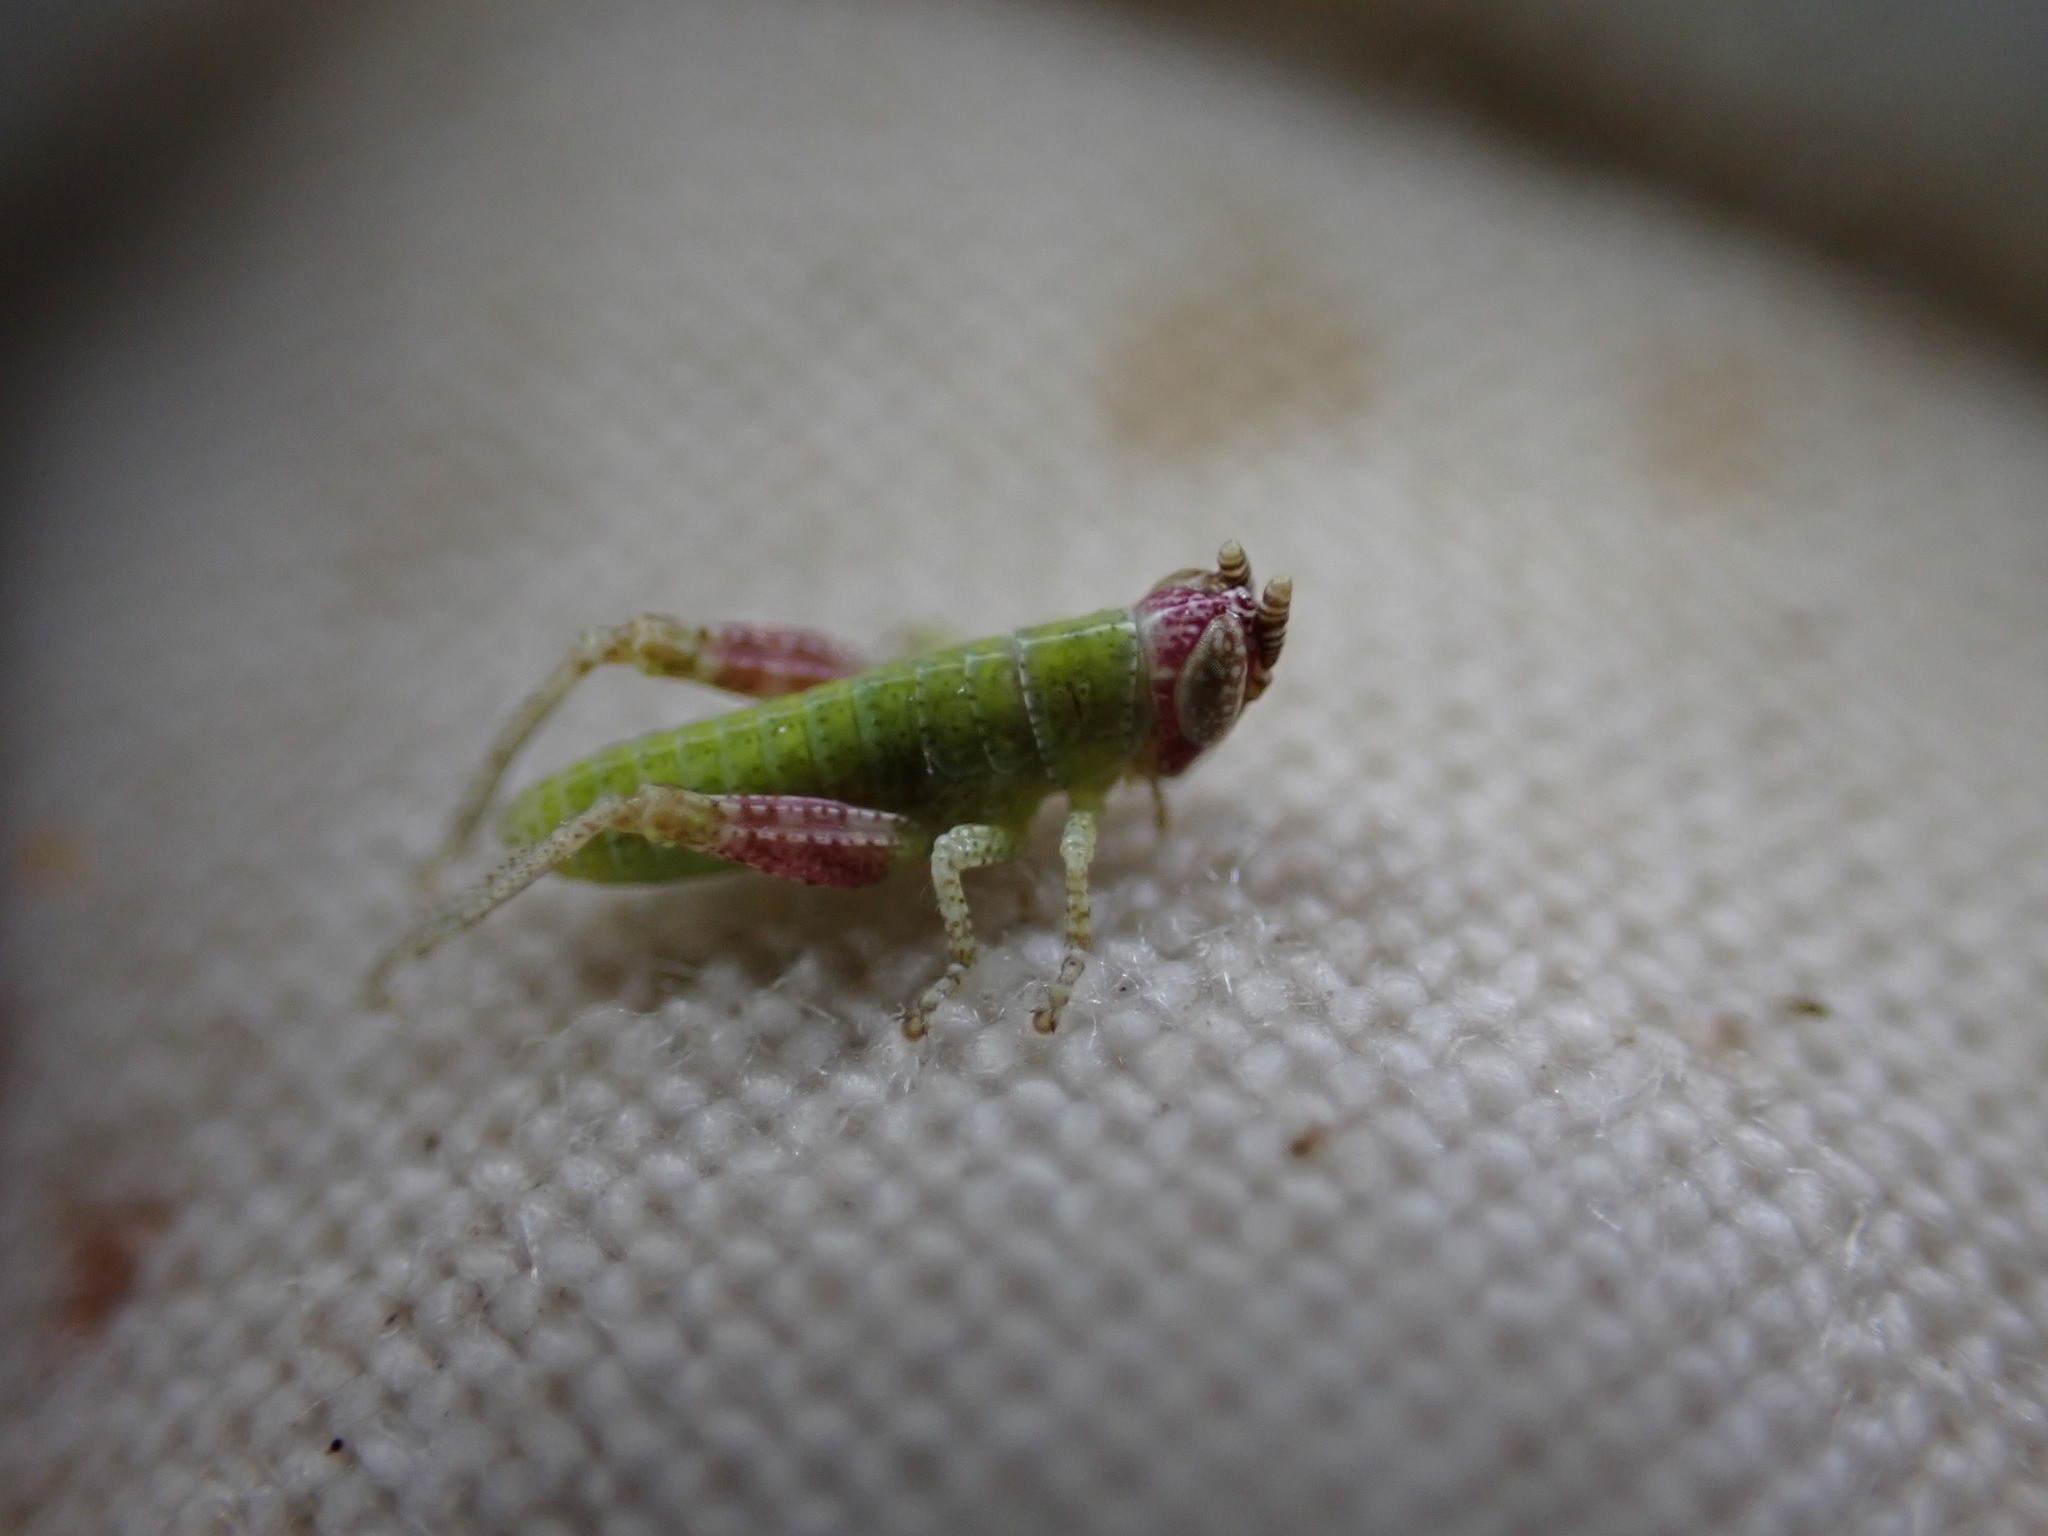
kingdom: Animalia
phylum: Arthropoda
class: Insecta
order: Orthoptera
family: Acrididae
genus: Pezotettix
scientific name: Pezotettix giornae
